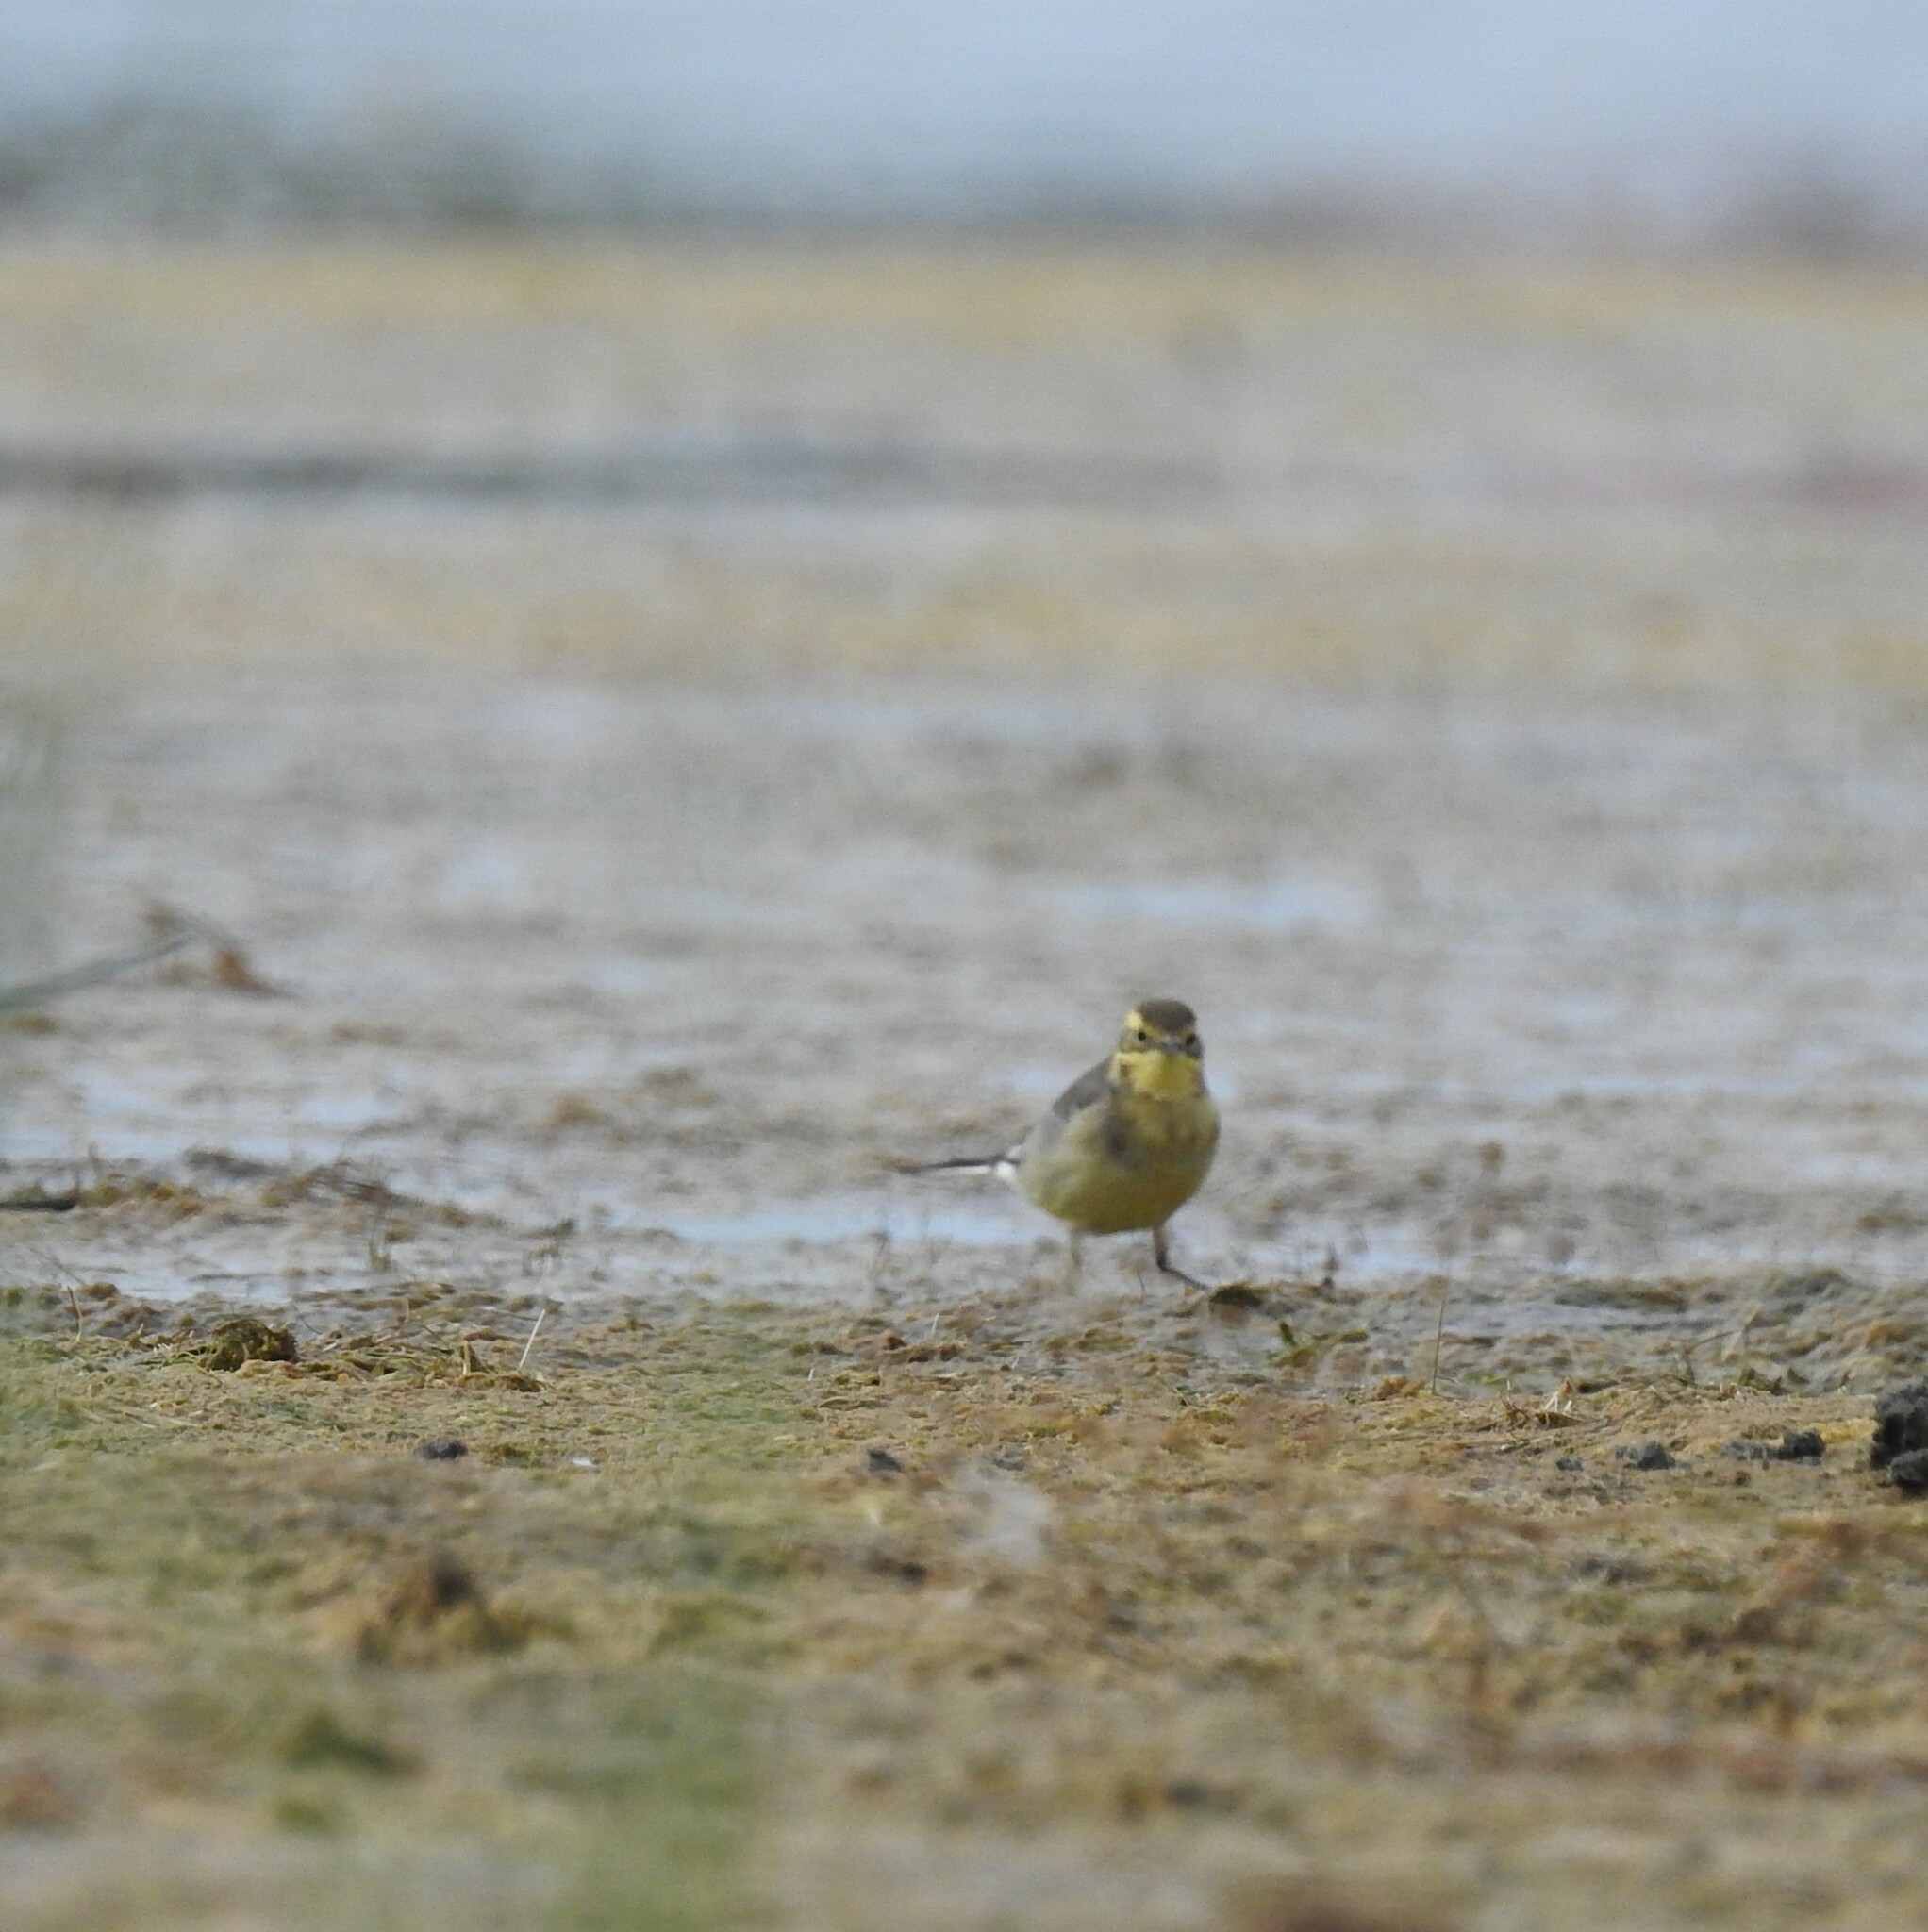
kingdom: Animalia
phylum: Chordata
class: Aves
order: Passeriformes
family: Motacillidae
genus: Motacilla
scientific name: Motacilla citreola
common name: Citrine wagtail
